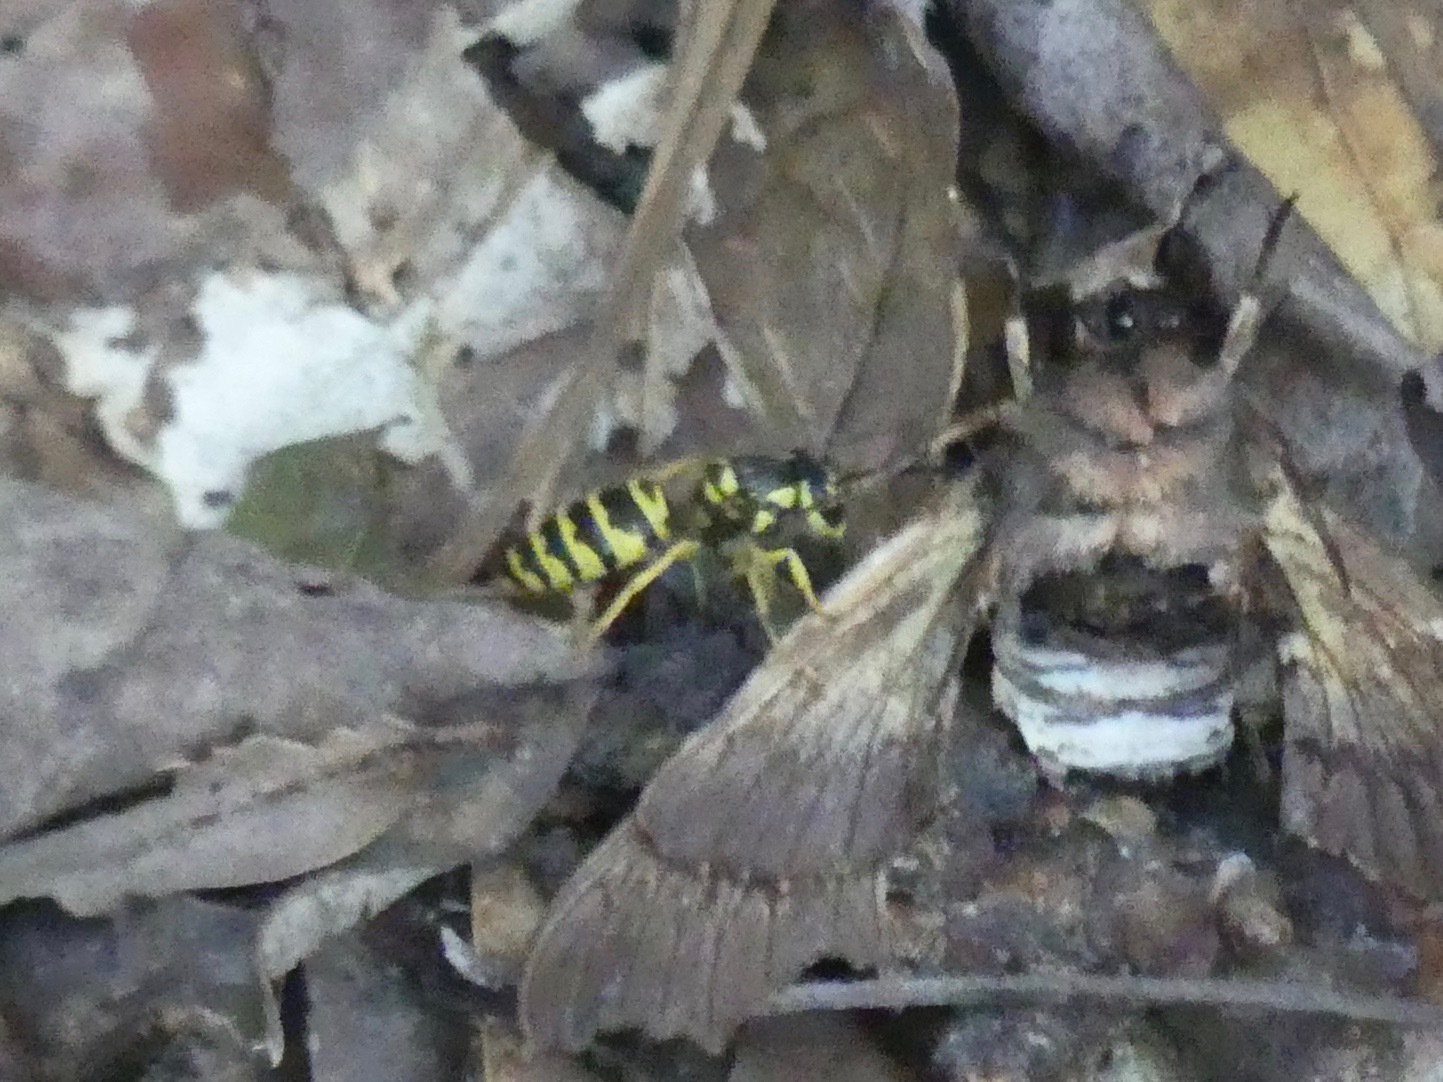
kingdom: Animalia
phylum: Arthropoda
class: Insecta
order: Hymenoptera
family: Vespidae
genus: Vespula
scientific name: Vespula maculifrons
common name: Eastern yellowjacket
